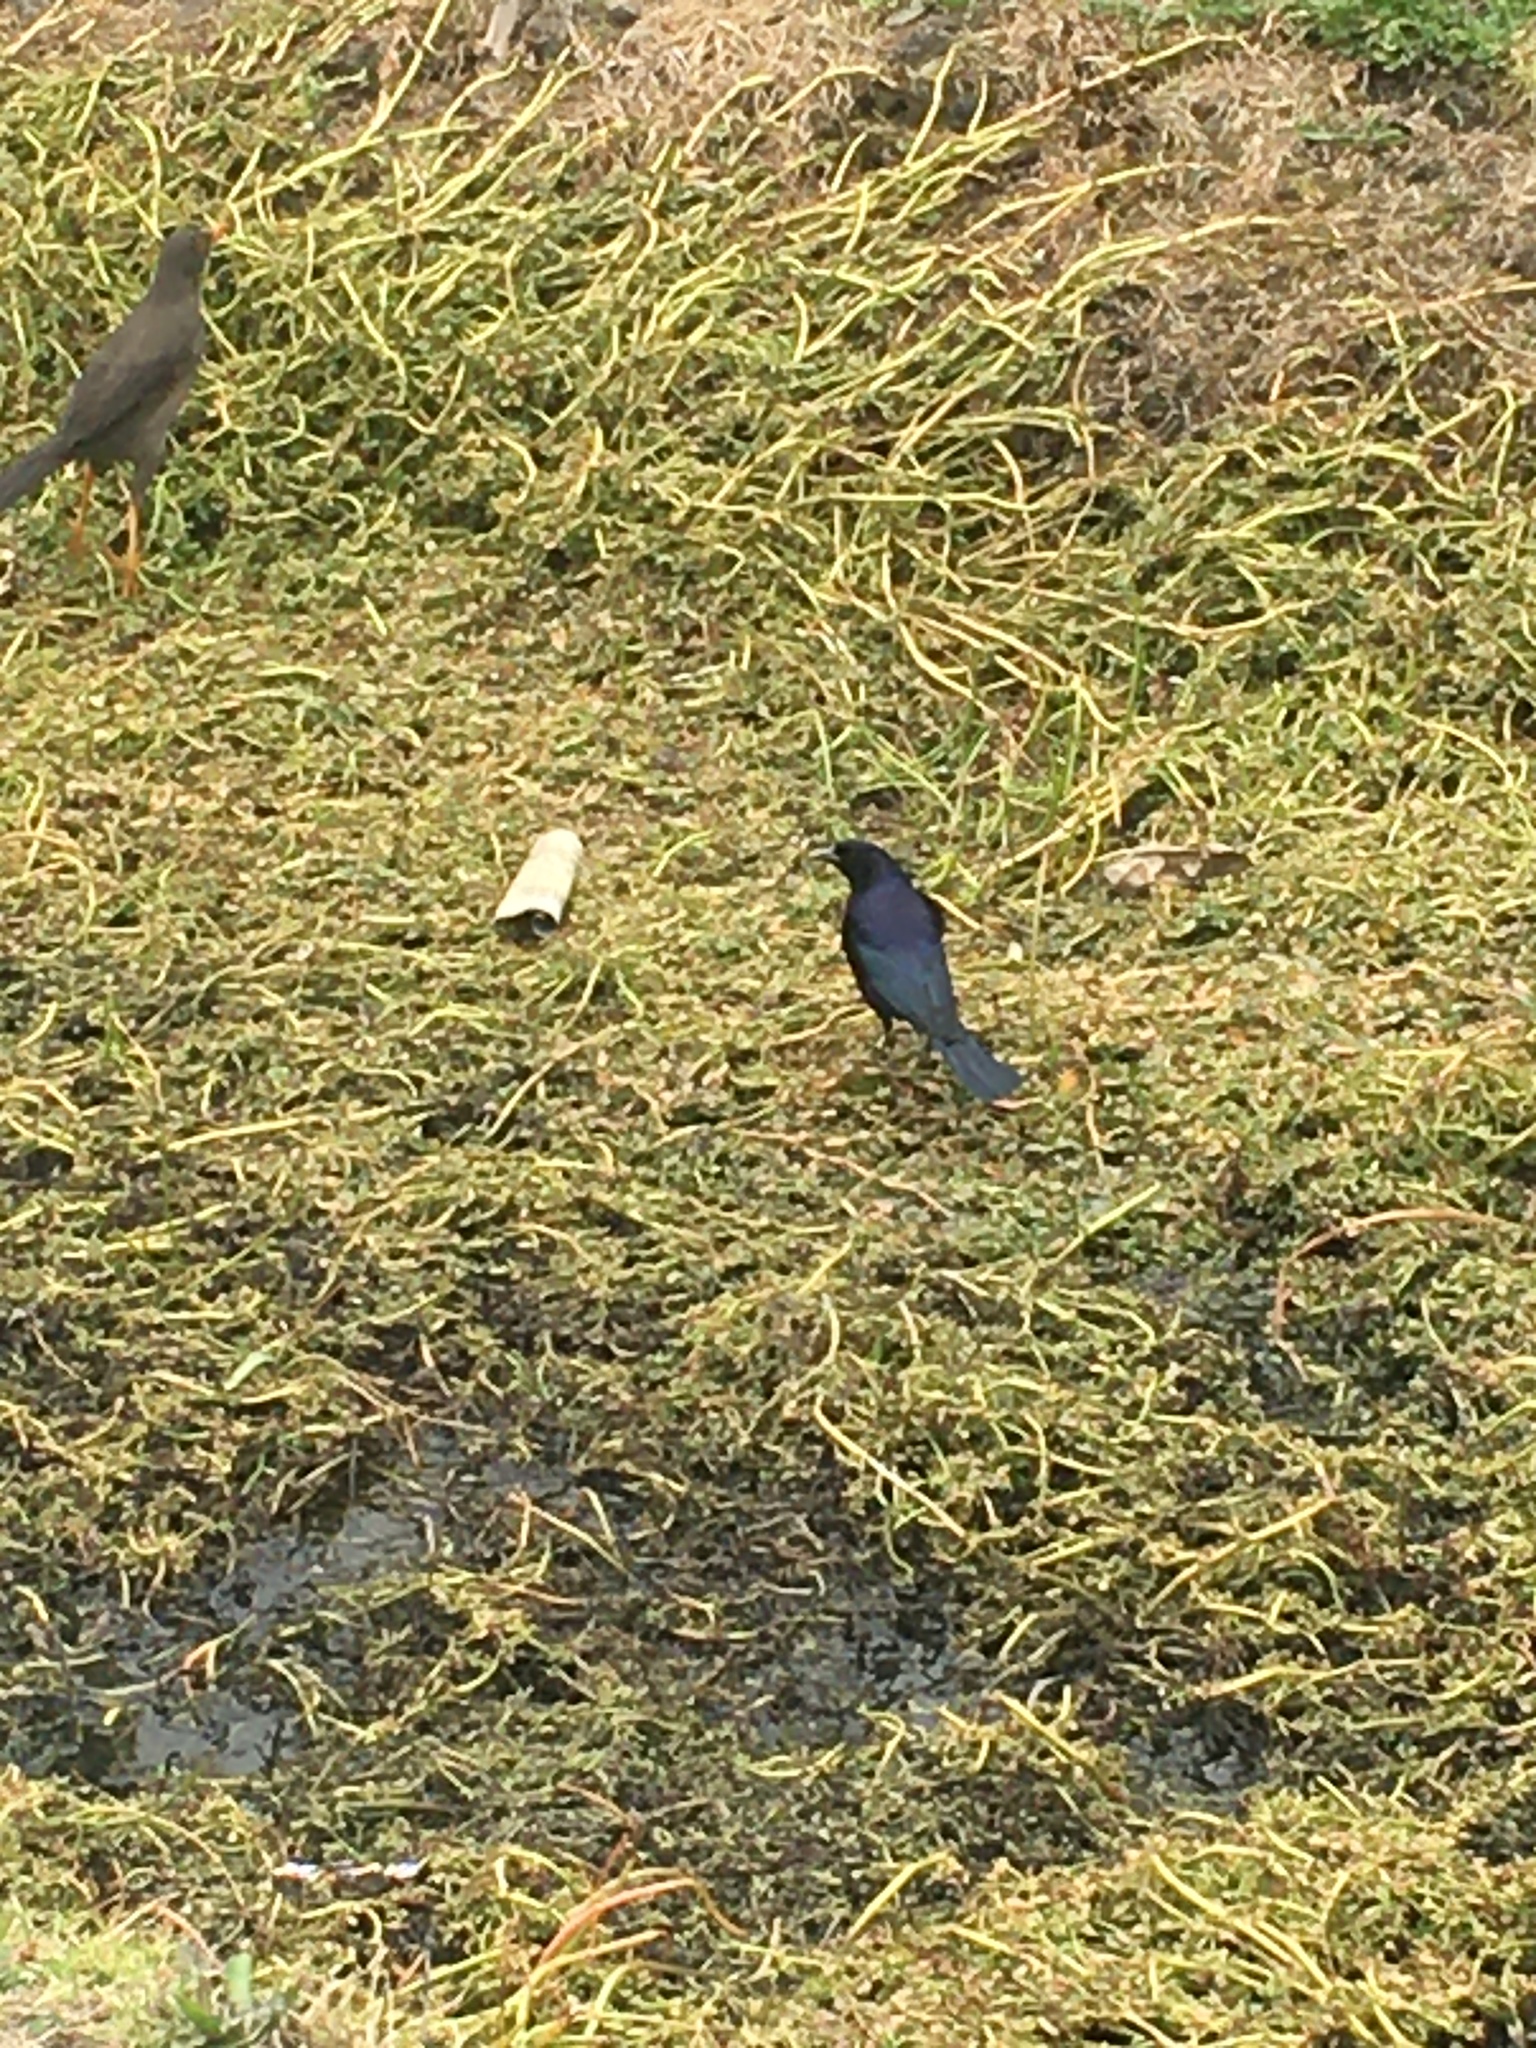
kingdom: Animalia
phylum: Chordata
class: Aves
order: Passeriformes
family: Icteridae
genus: Molothrus
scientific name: Molothrus bonariensis
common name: Shiny cowbird
